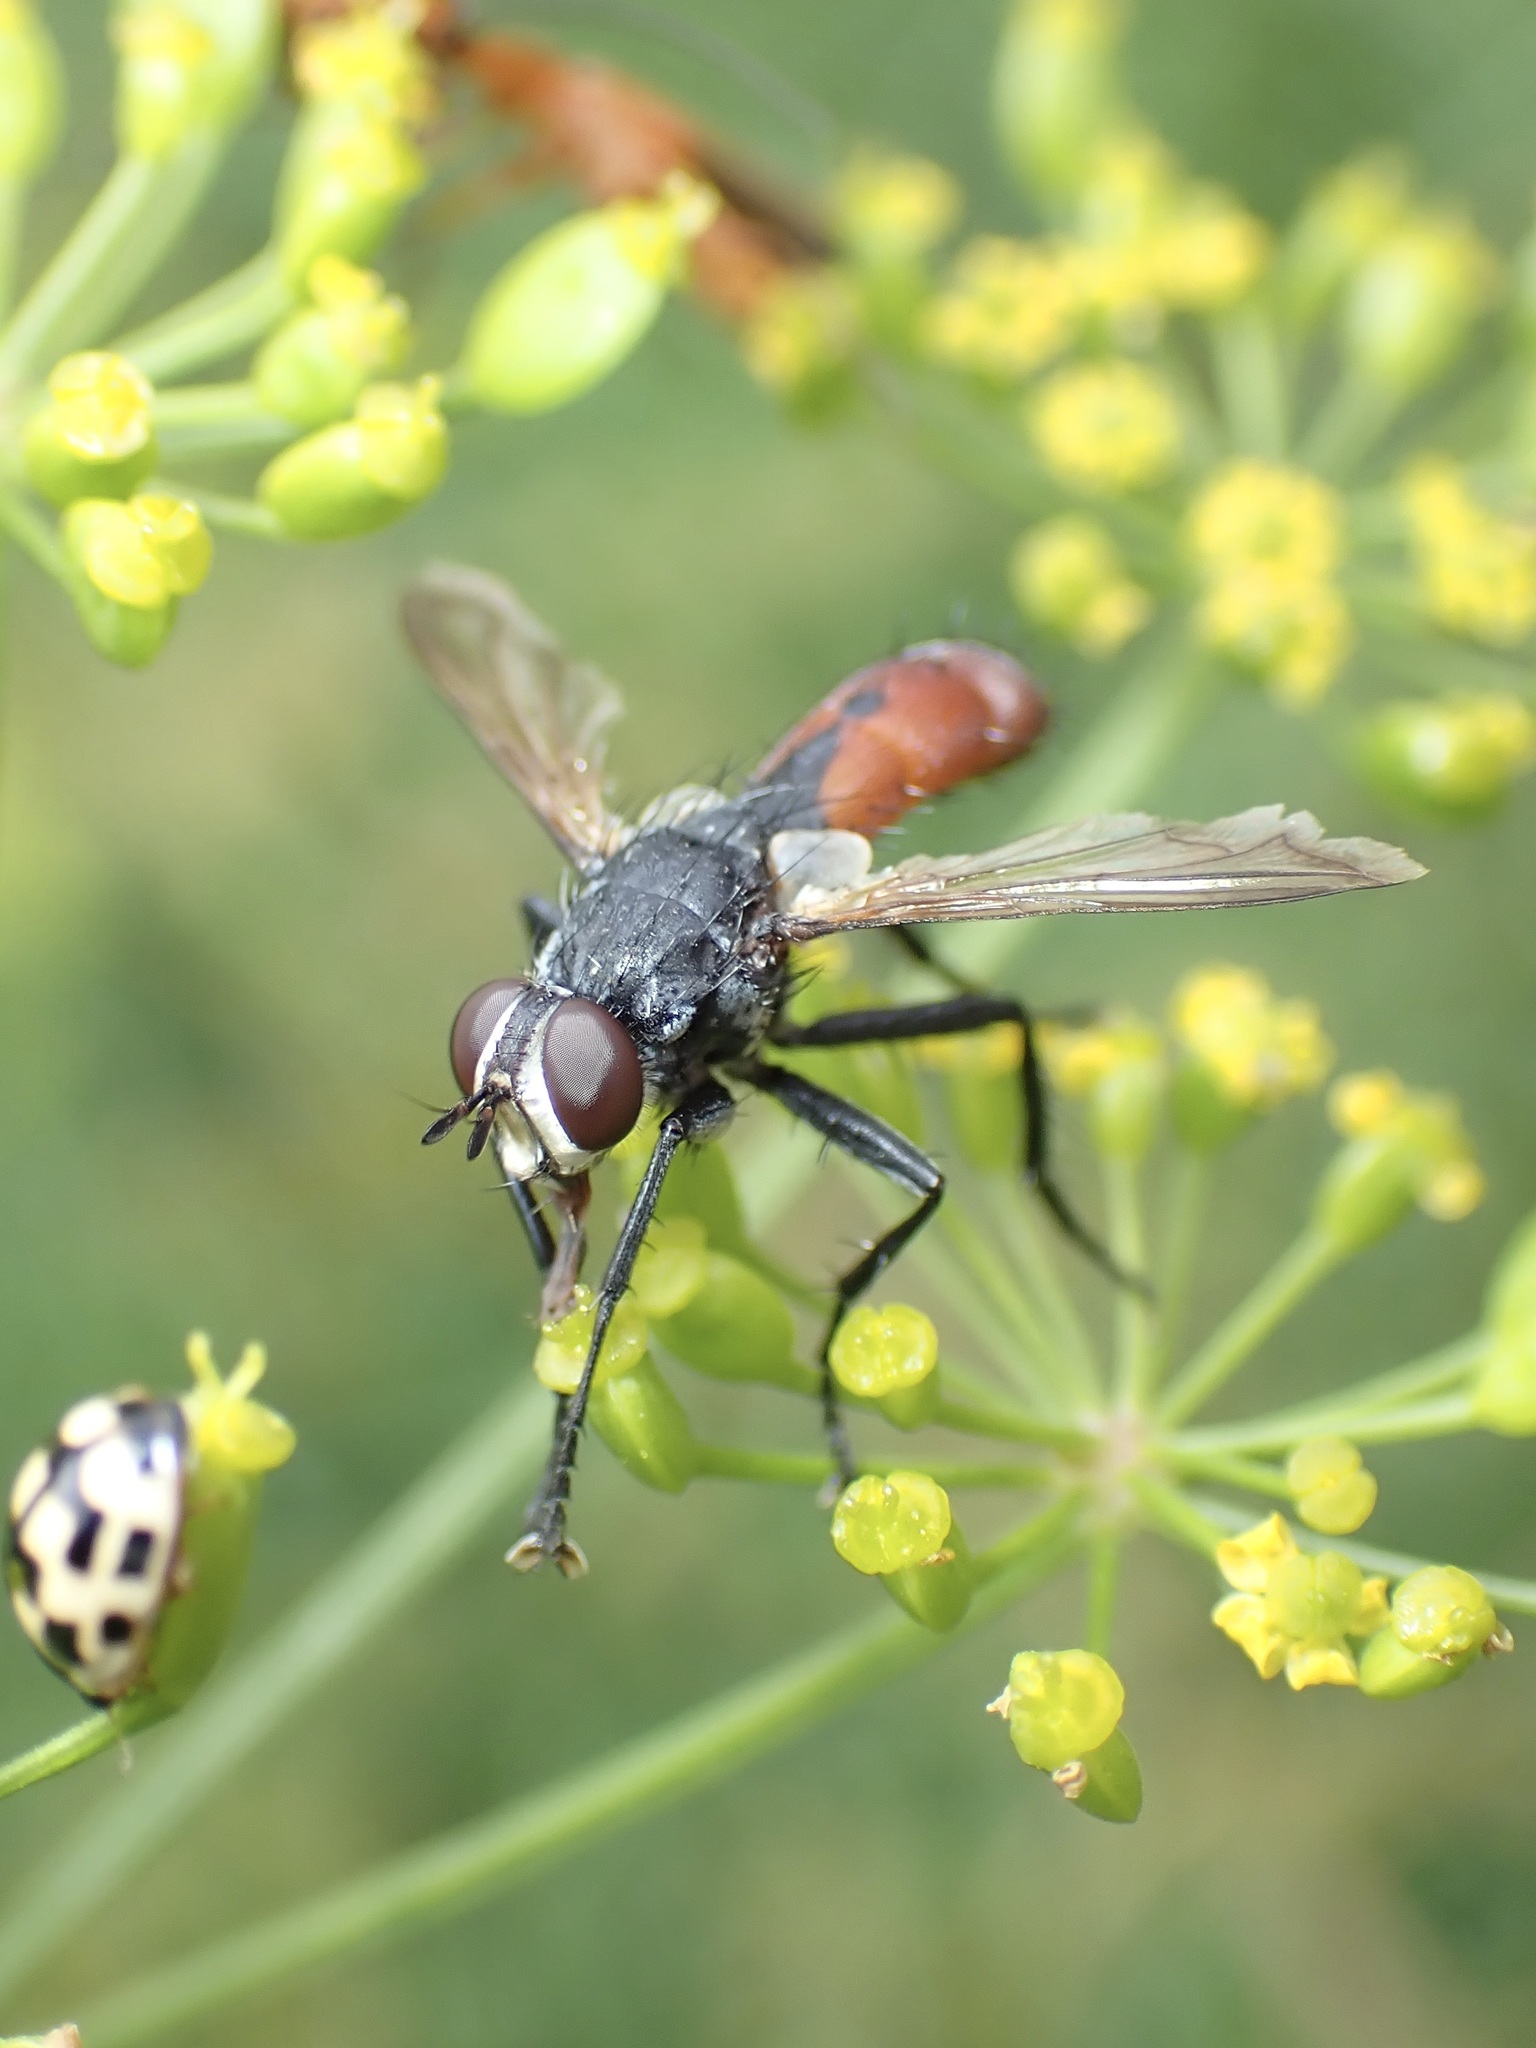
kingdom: Animalia
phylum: Arthropoda
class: Insecta
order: Diptera
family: Tachinidae
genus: Cylindromyia
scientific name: Cylindromyia bicolor
